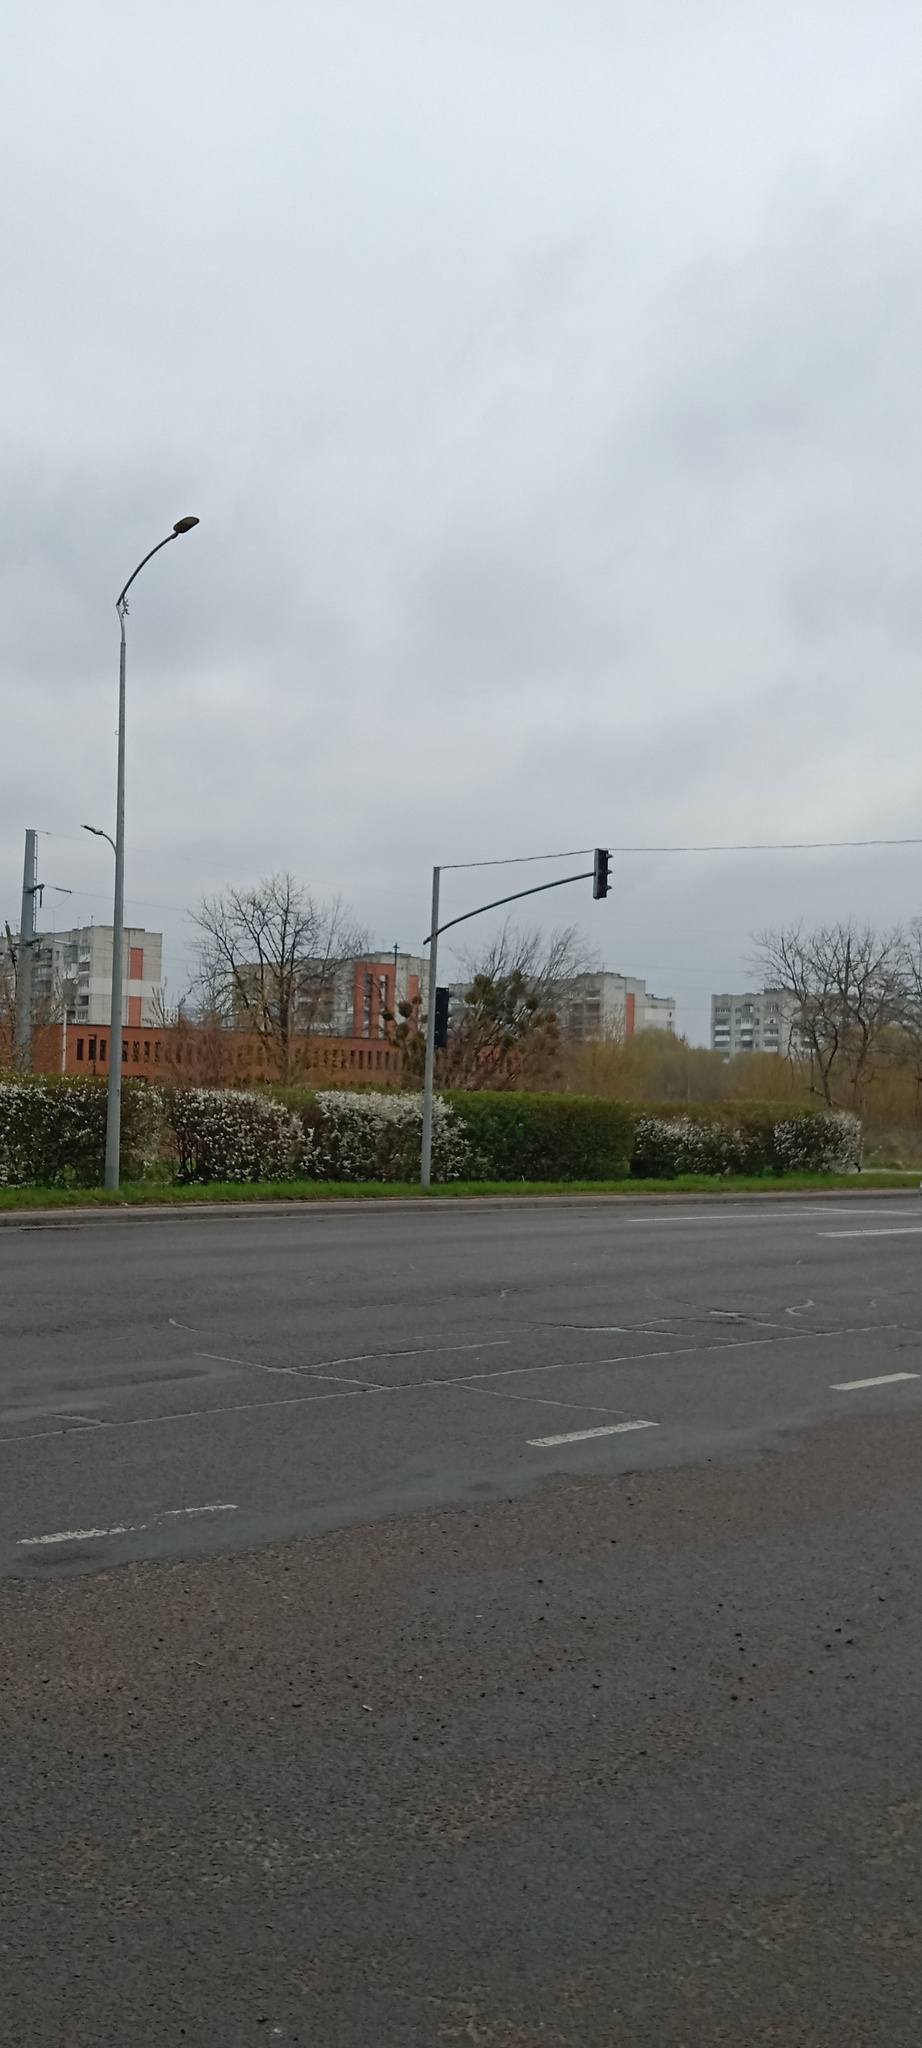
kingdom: Plantae
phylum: Tracheophyta
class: Magnoliopsida
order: Santalales
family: Viscaceae
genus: Viscum
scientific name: Viscum album
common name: Mistletoe
